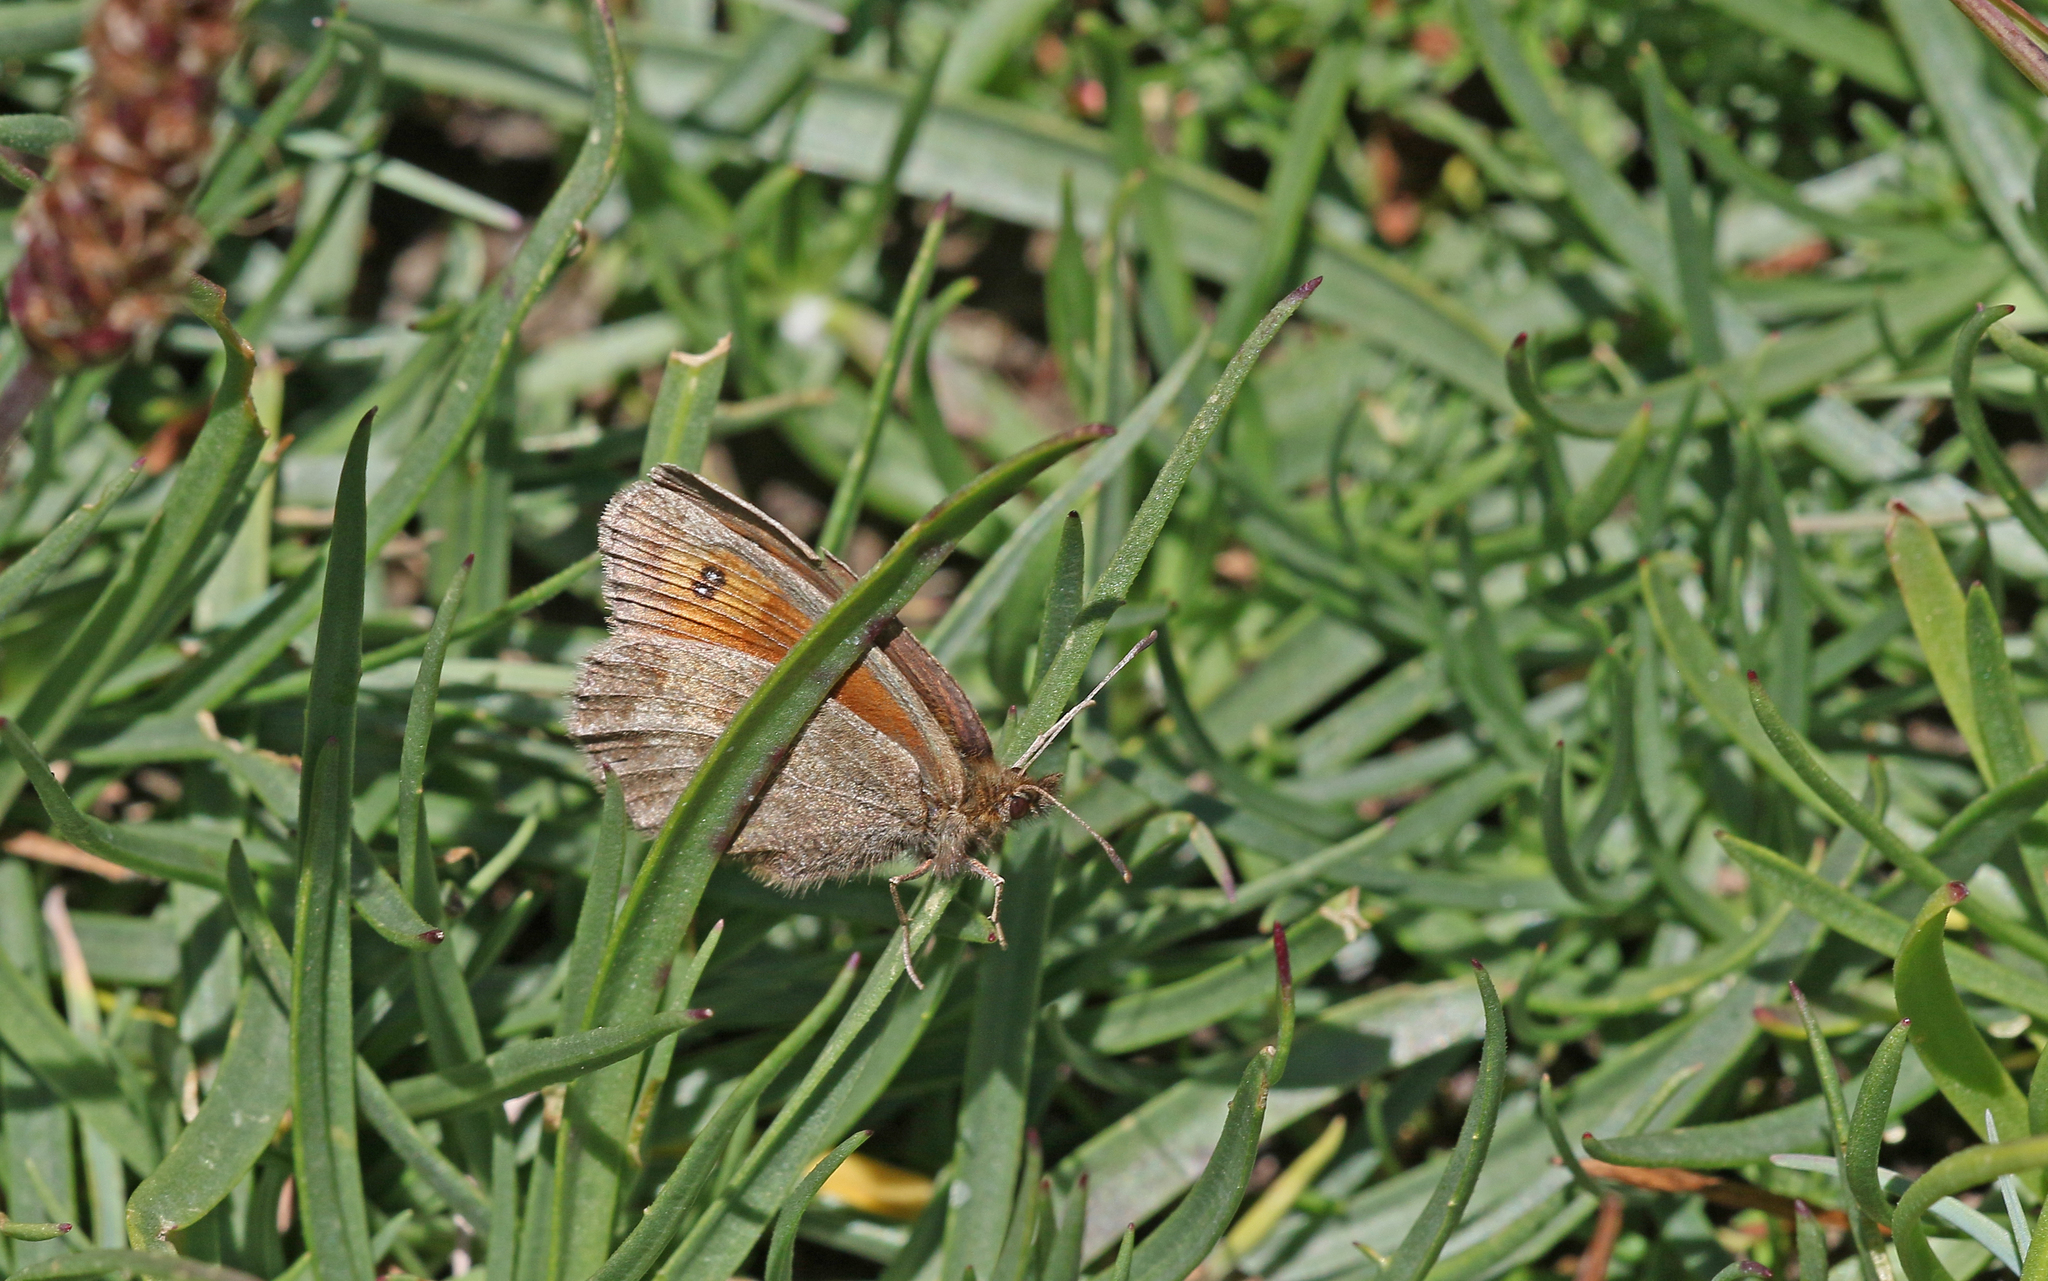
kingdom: Animalia
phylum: Arthropoda
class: Insecta
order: Lepidoptera
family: Nymphalidae
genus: Erebia
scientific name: Erebia mnestra
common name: Mnestra’s ringlet
